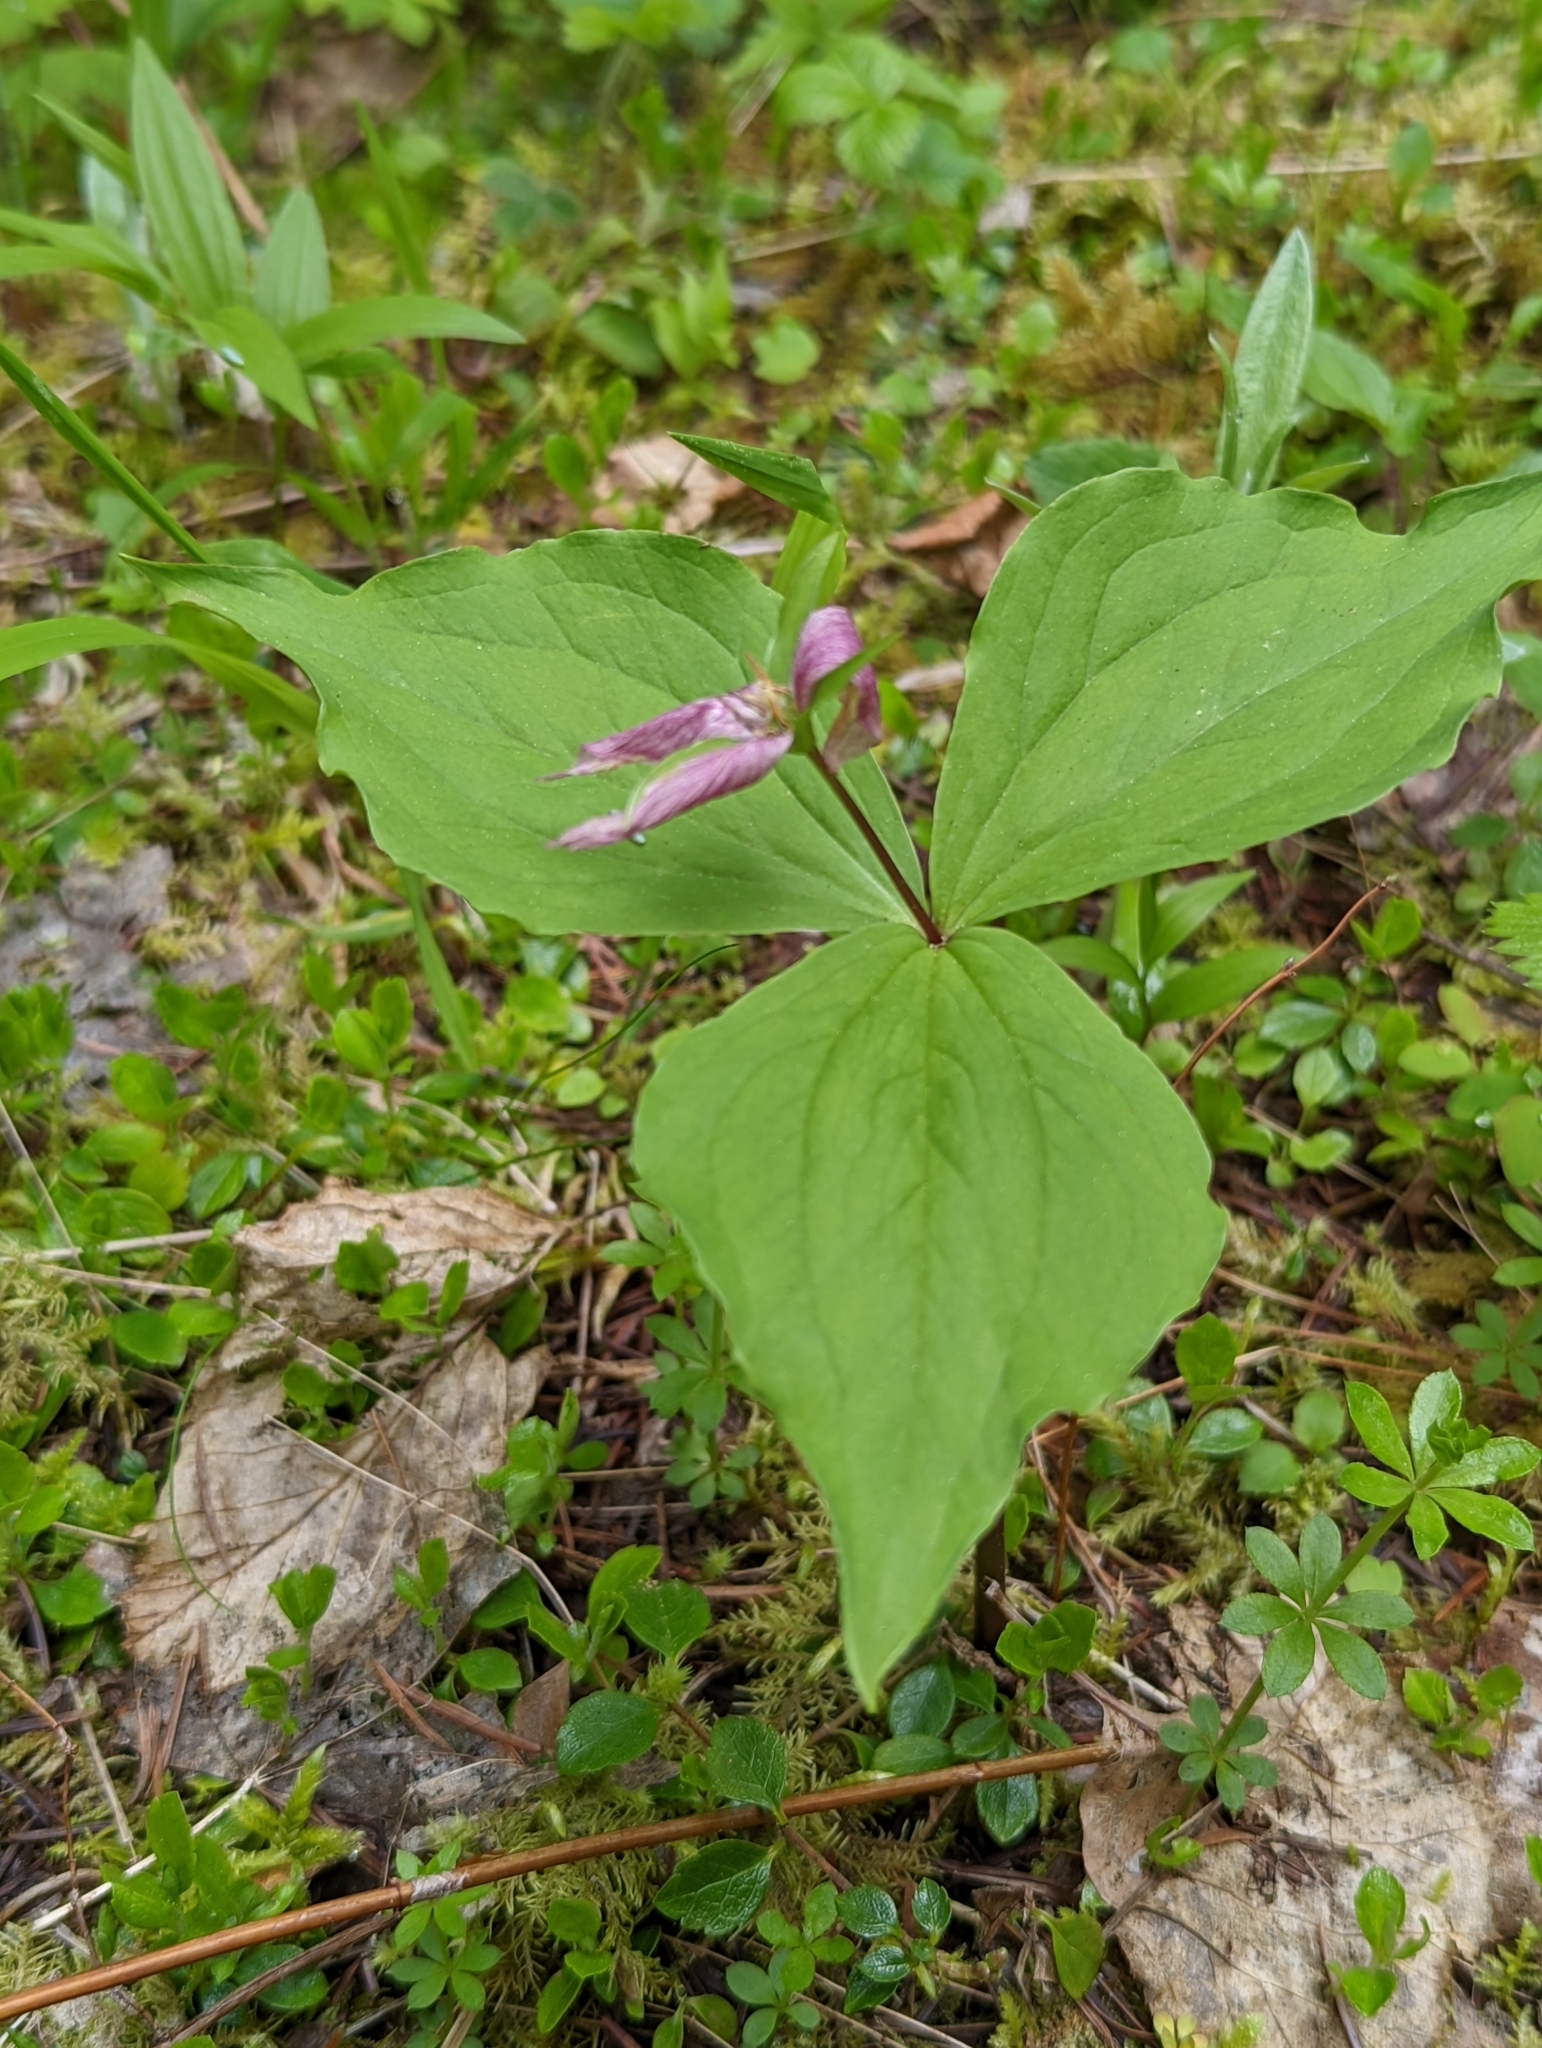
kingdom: Plantae
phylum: Tracheophyta
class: Liliopsida
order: Liliales
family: Melanthiaceae
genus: Trillium
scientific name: Trillium ovatum
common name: Pacific trillium
